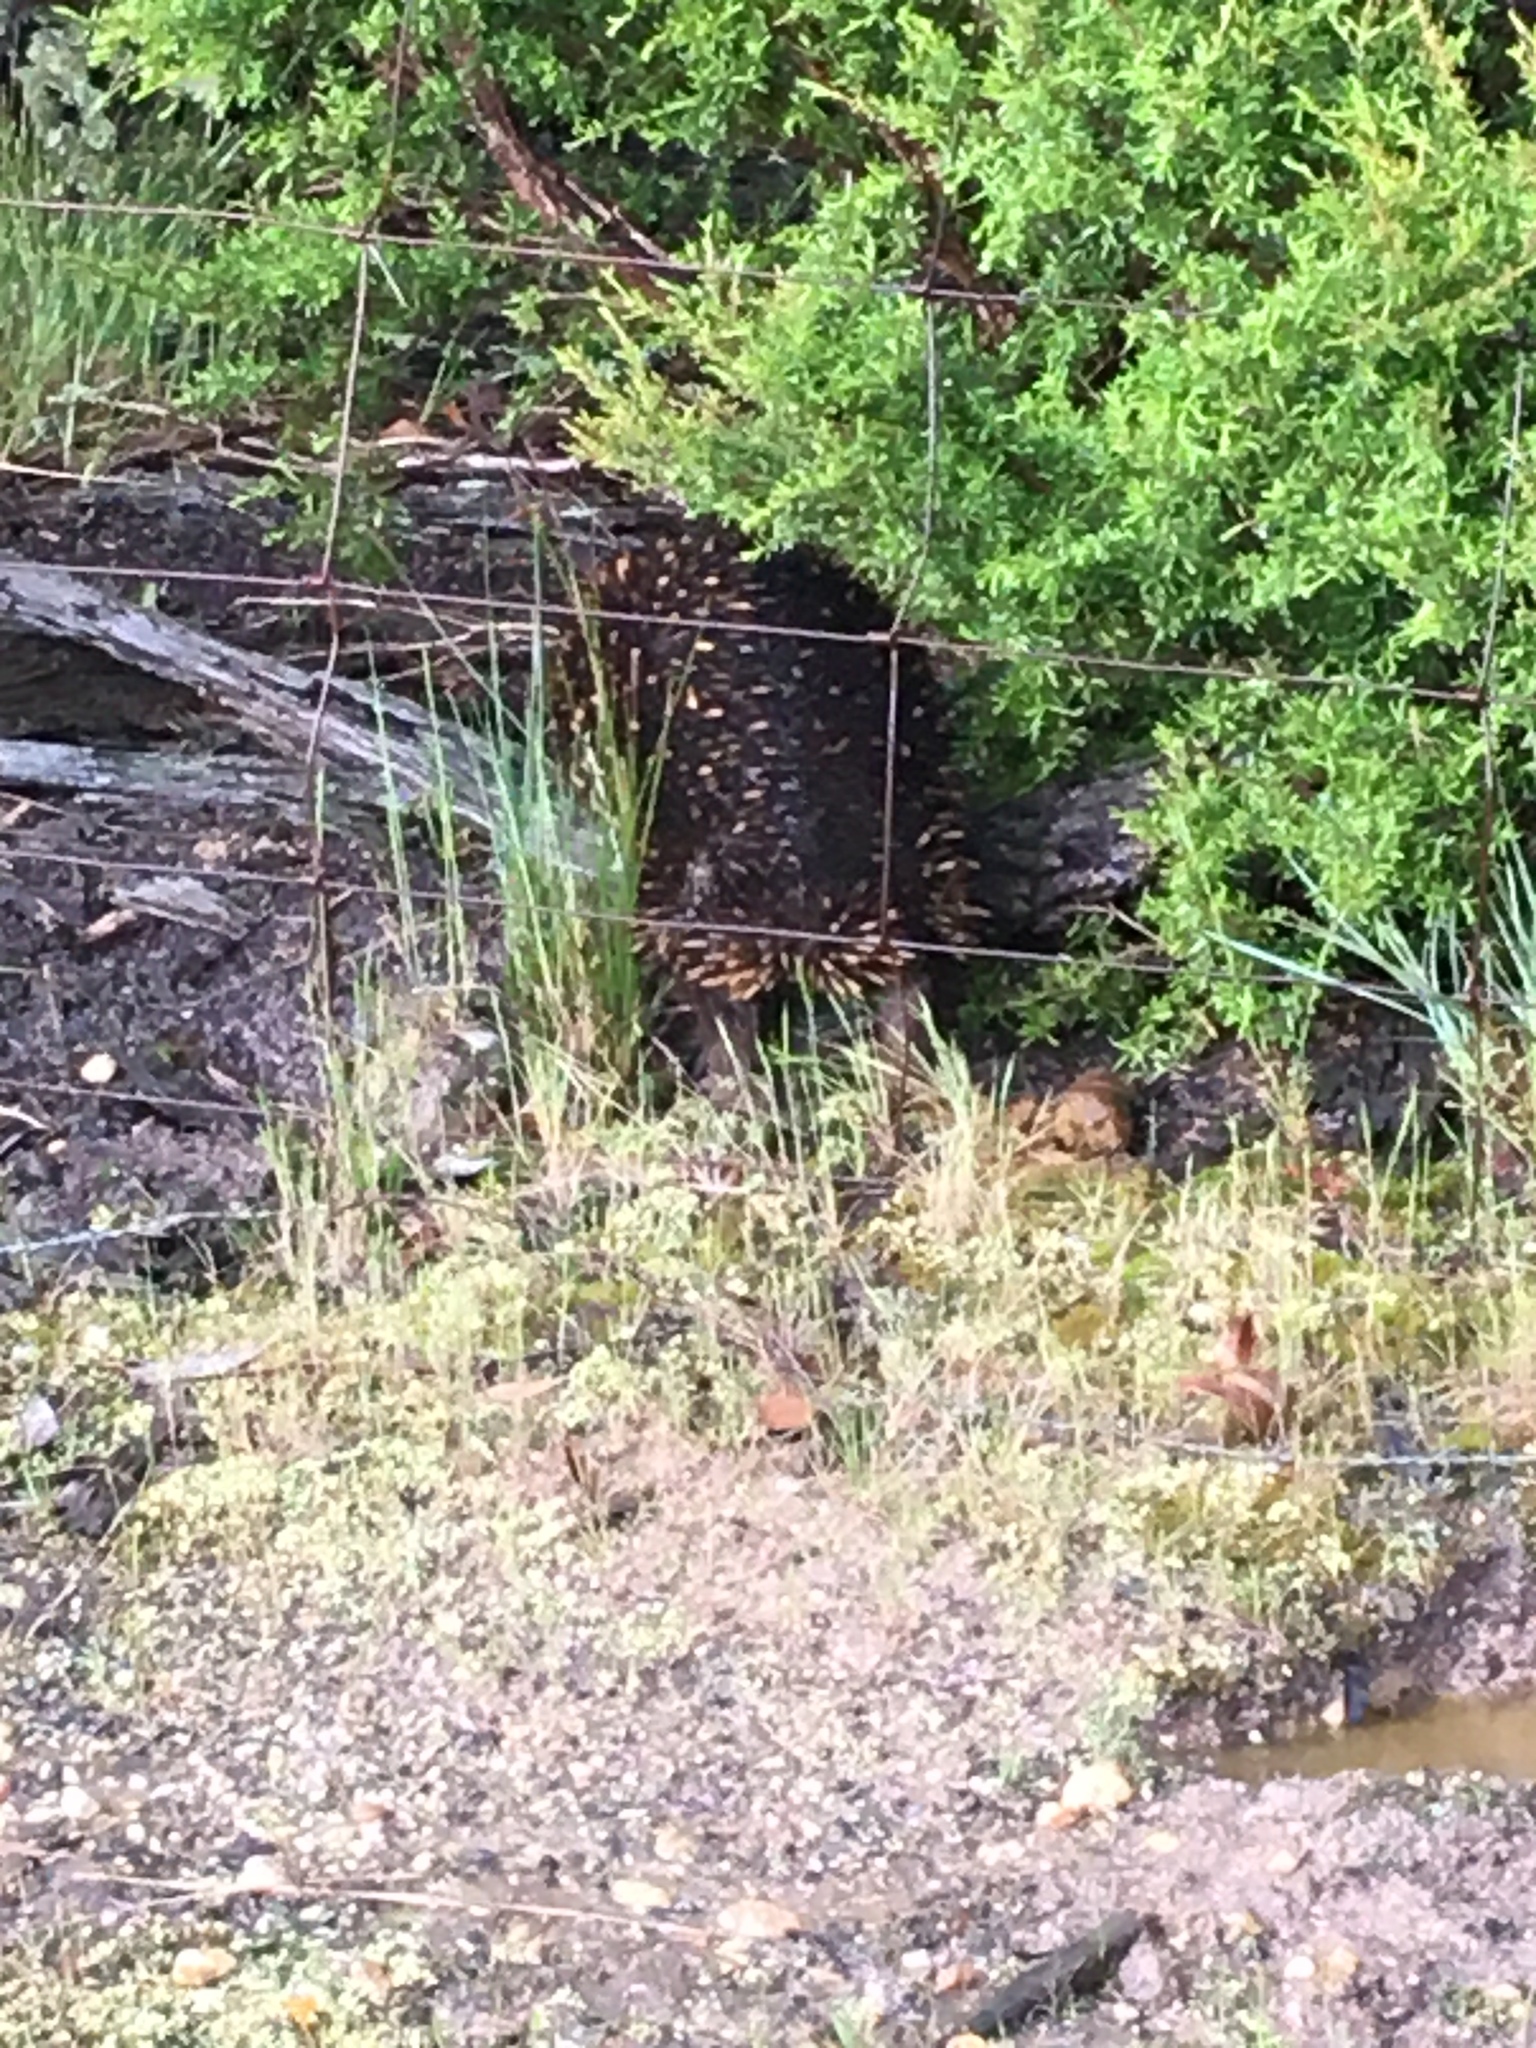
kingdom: Animalia
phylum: Chordata
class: Mammalia
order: Monotremata
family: Tachyglossidae
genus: Tachyglossus
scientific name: Tachyglossus aculeatus
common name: Short-beaked echidna
